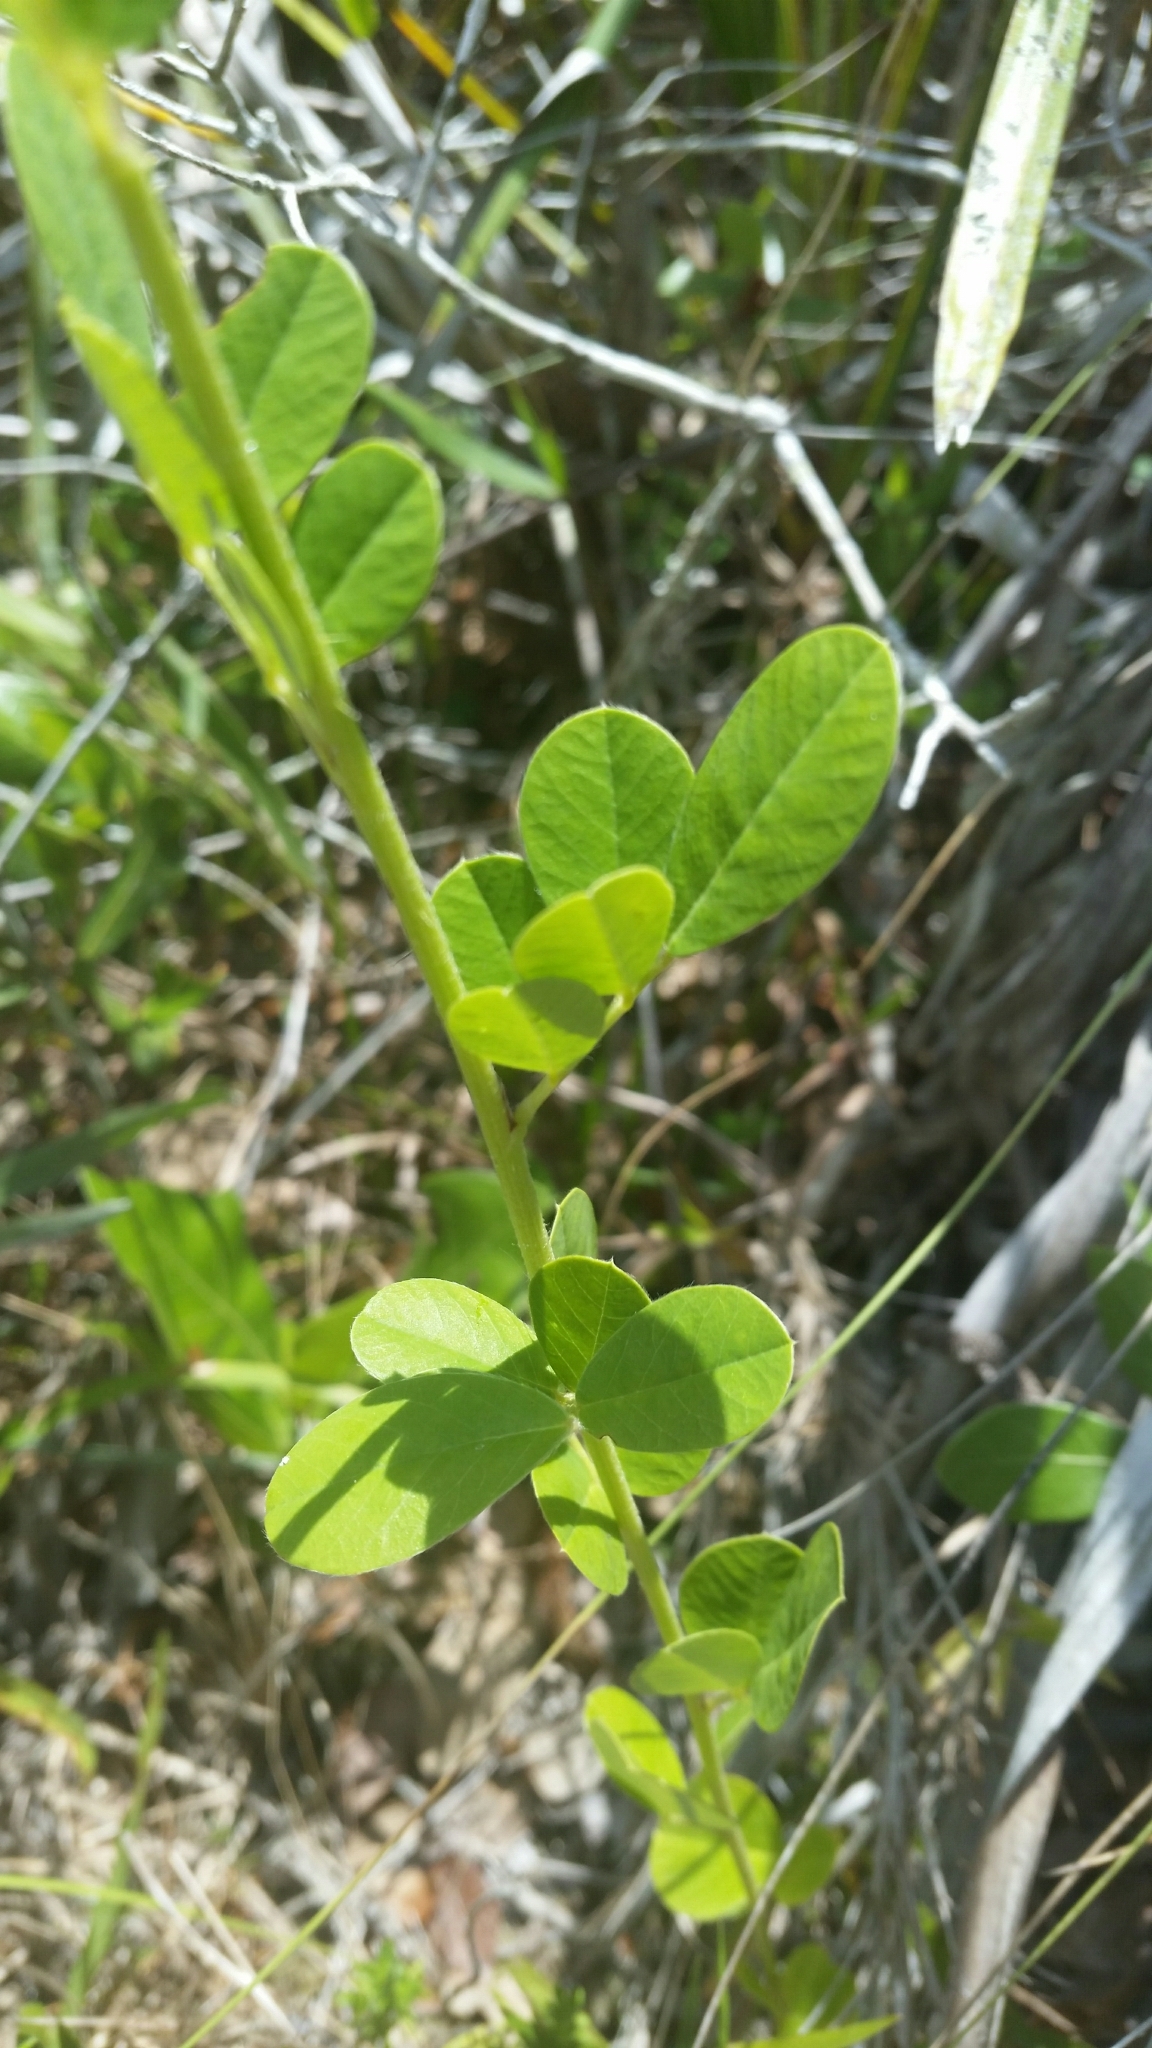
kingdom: Plantae
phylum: Tracheophyta
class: Magnoliopsida
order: Fabales
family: Fabaceae
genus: Chapmannia
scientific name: Chapmannia floridana
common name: Alicia
